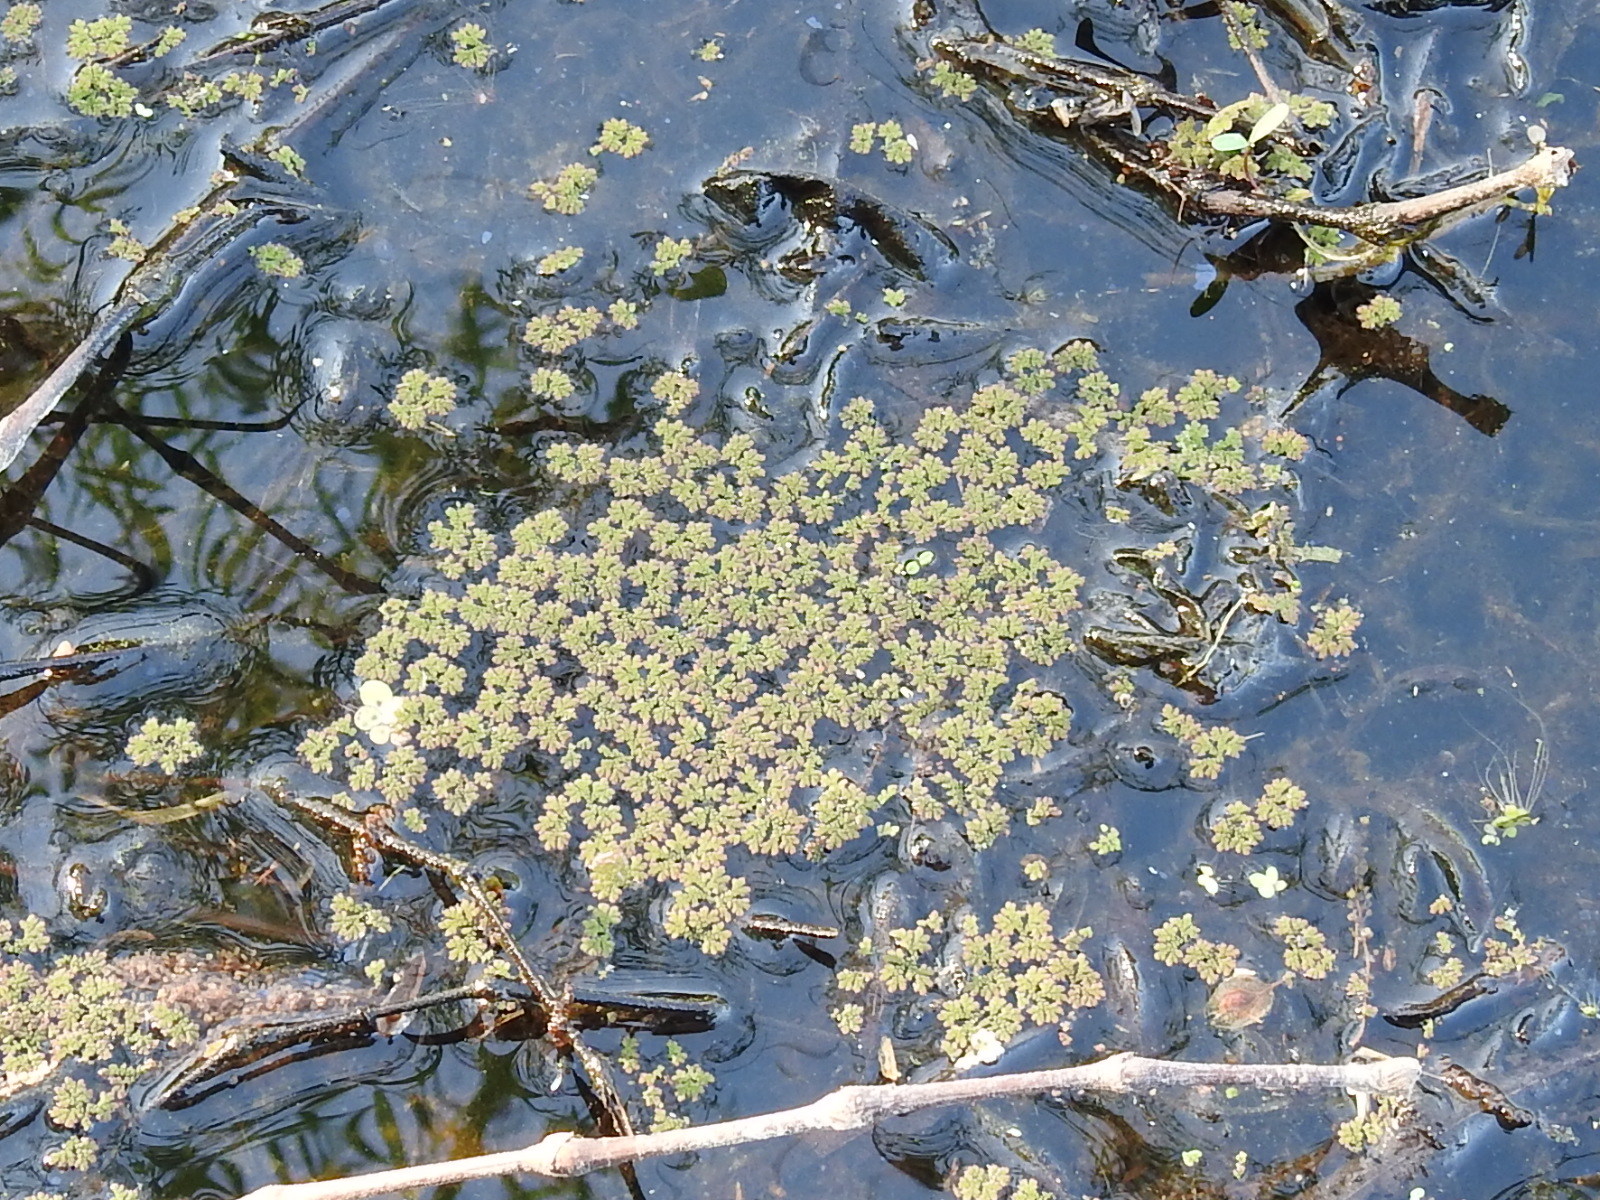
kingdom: Plantae
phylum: Tracheophyta
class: Polypodiopsida
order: Salviniales
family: Salviniaceae
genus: Azolla
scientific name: Azolla caroliniana
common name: Carolina mosquitofern
